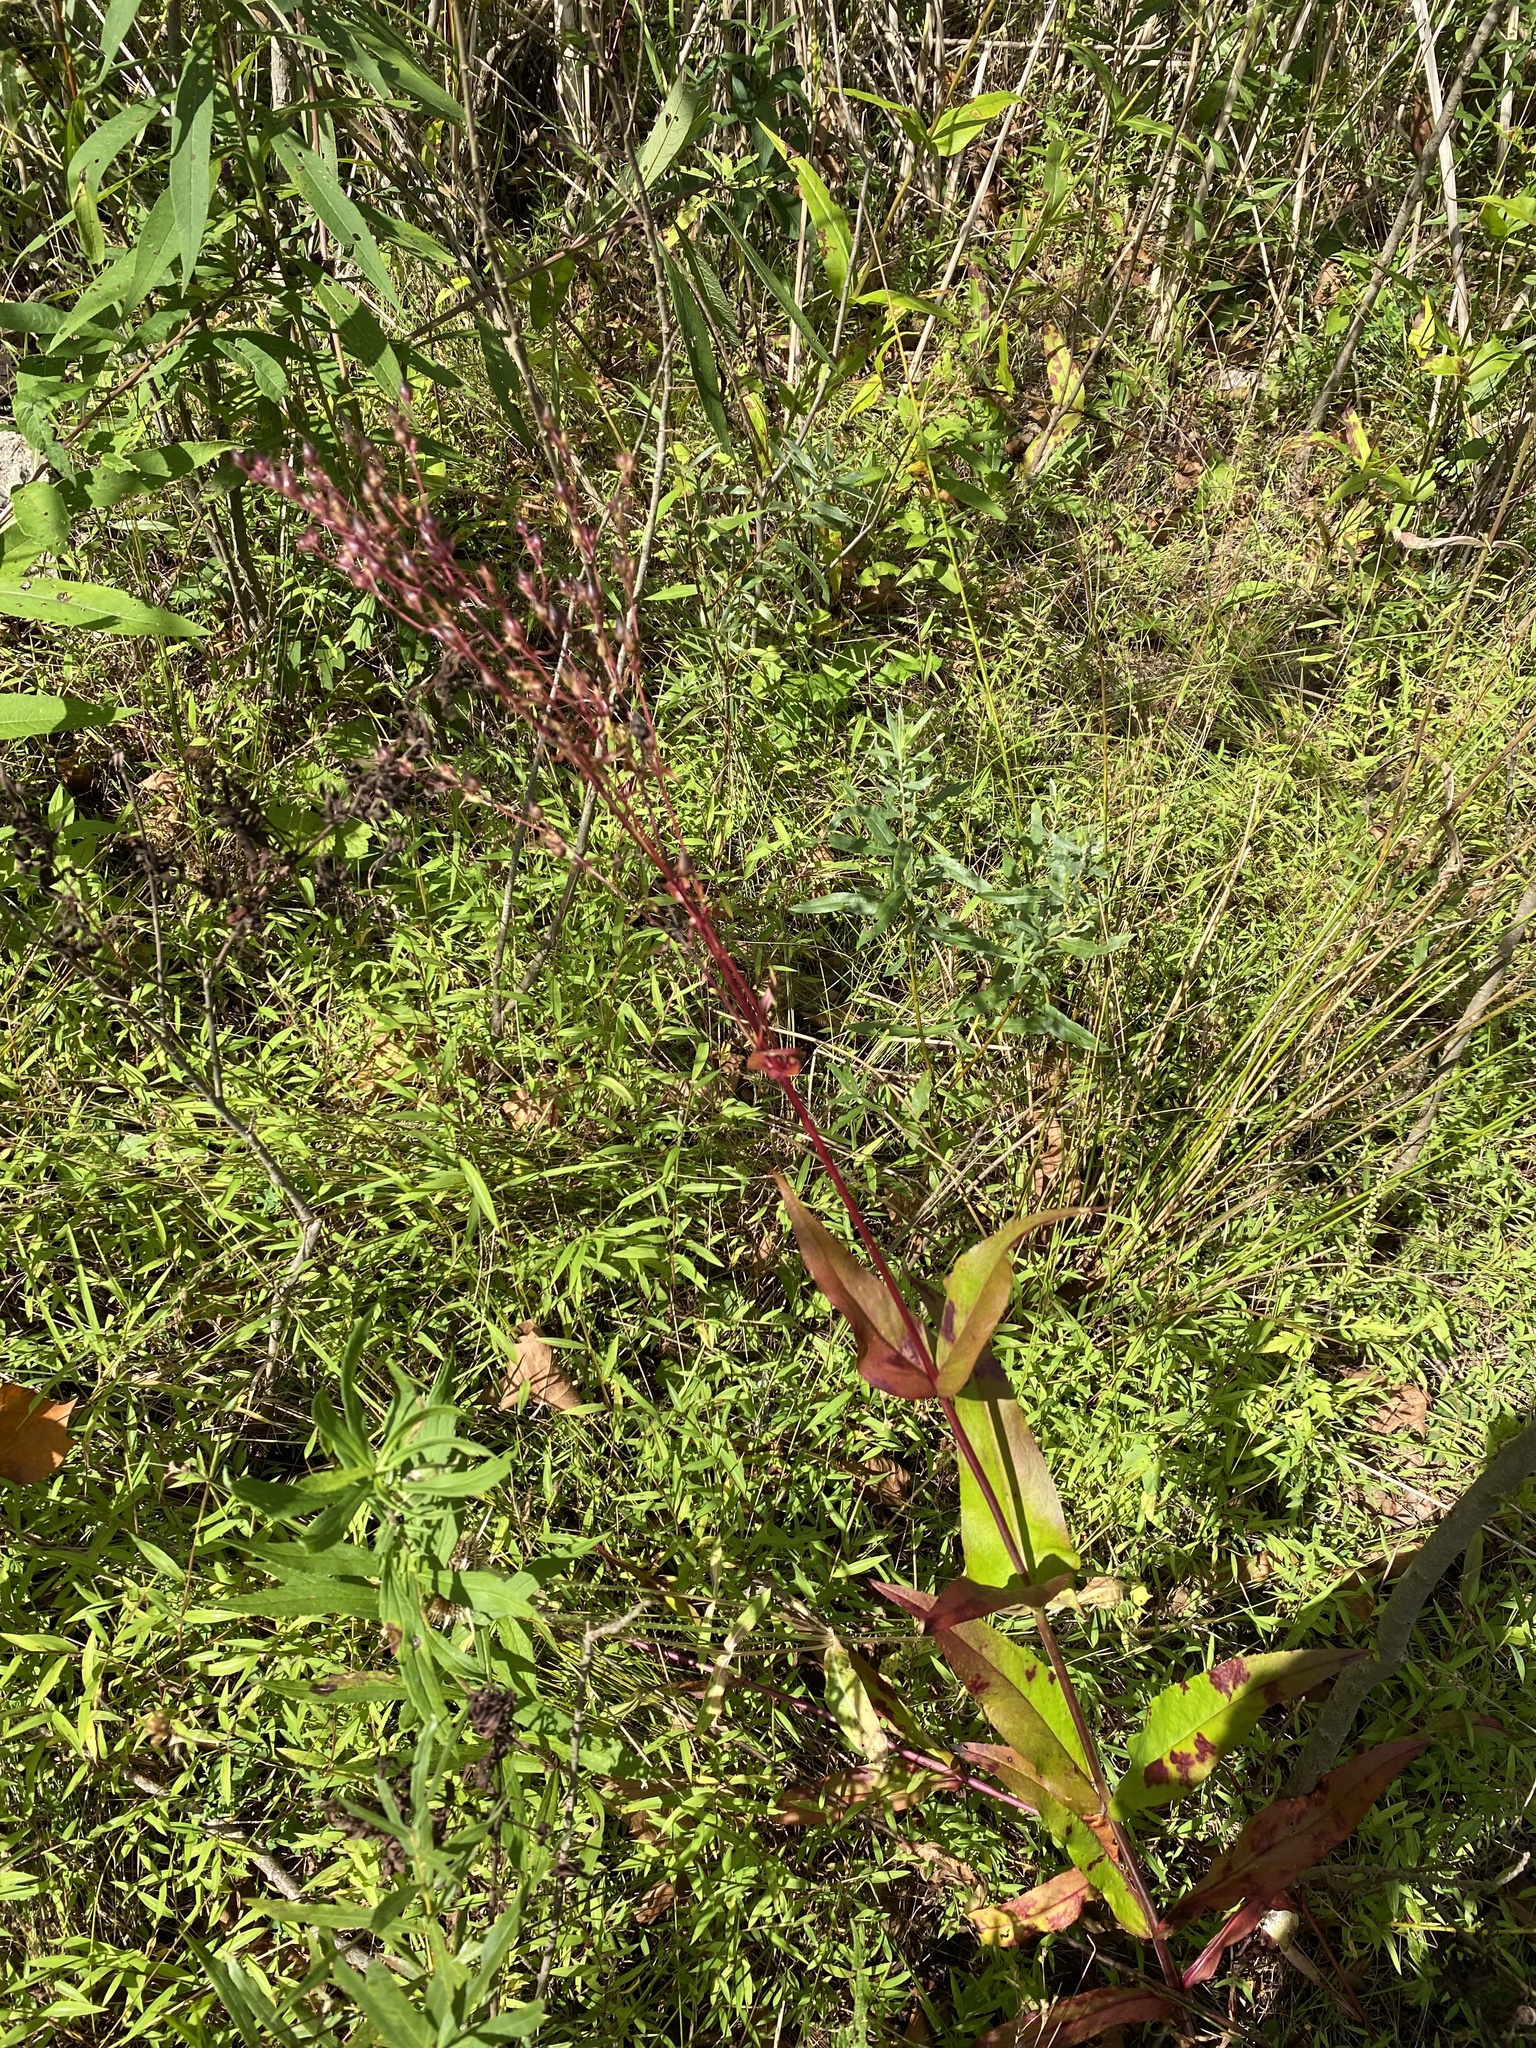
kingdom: Plantae
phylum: Tracheophyta
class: Magnoliopsida
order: Lamiales
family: Plantaginaceae
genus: Penstemon
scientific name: Penstemon digitalis
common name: Foxglove beardtongue
